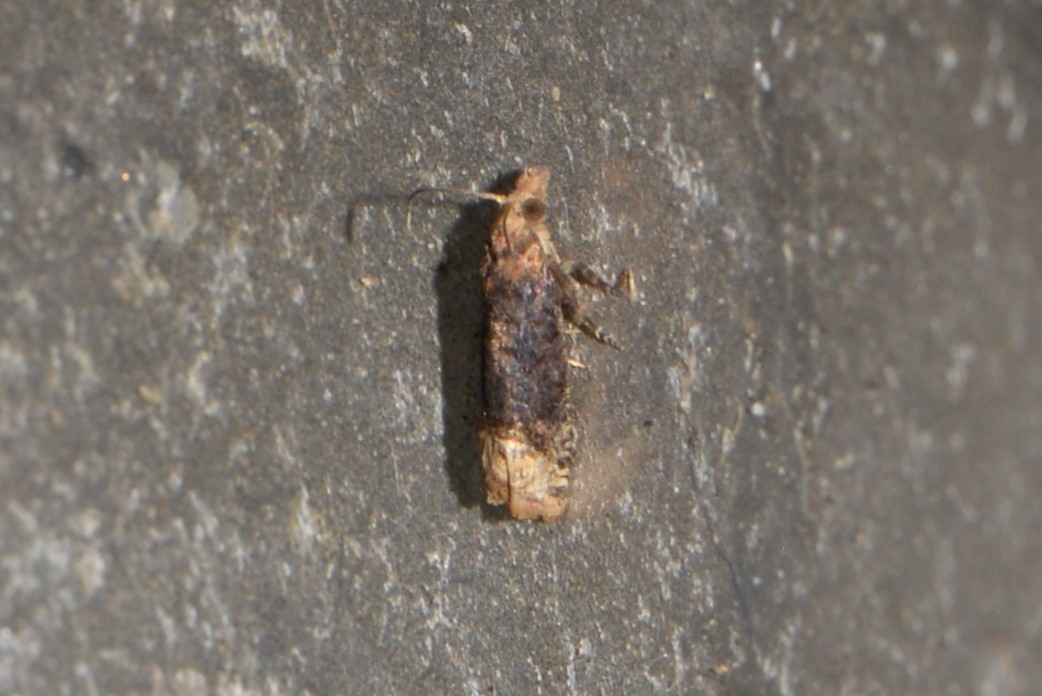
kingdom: Animalia
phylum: Arthropoda
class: Insecta
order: Lepidoptera
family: Tortricidae
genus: Eucosma
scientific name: Eucosma ochroterminana
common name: Buff-tipped eucosma moth
